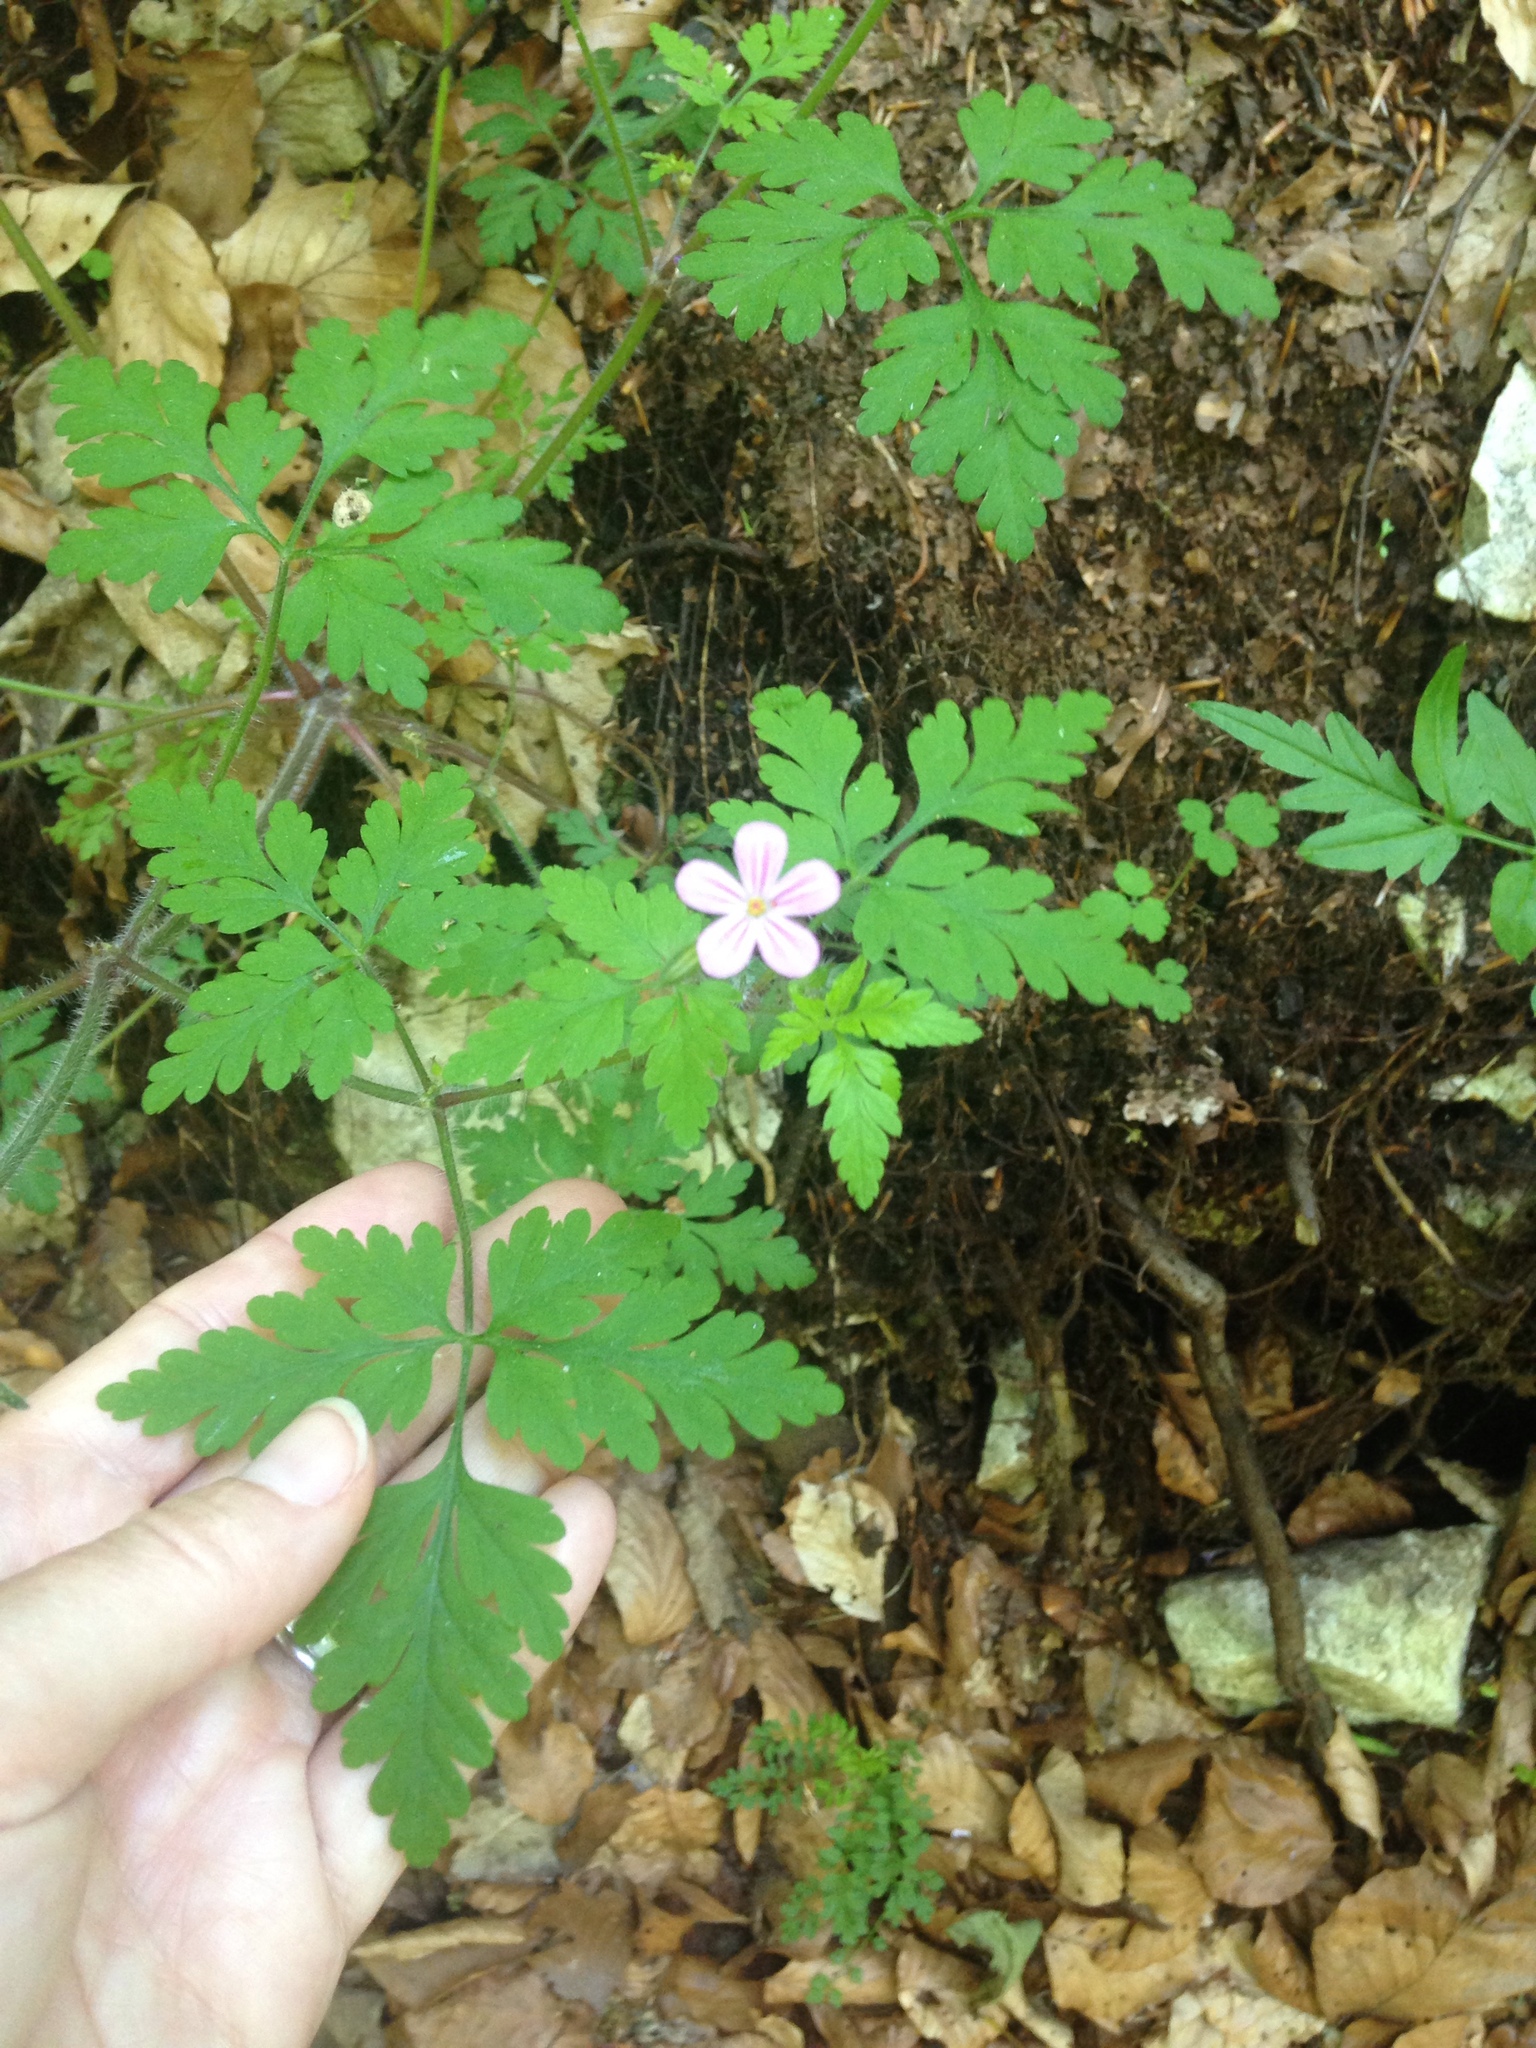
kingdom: Plantae
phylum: Tracheophyta
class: Magnoliopsida
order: Geraniales
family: Geraniaceae
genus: Geranium
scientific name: Geranium robertianum
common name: Herb-robert
